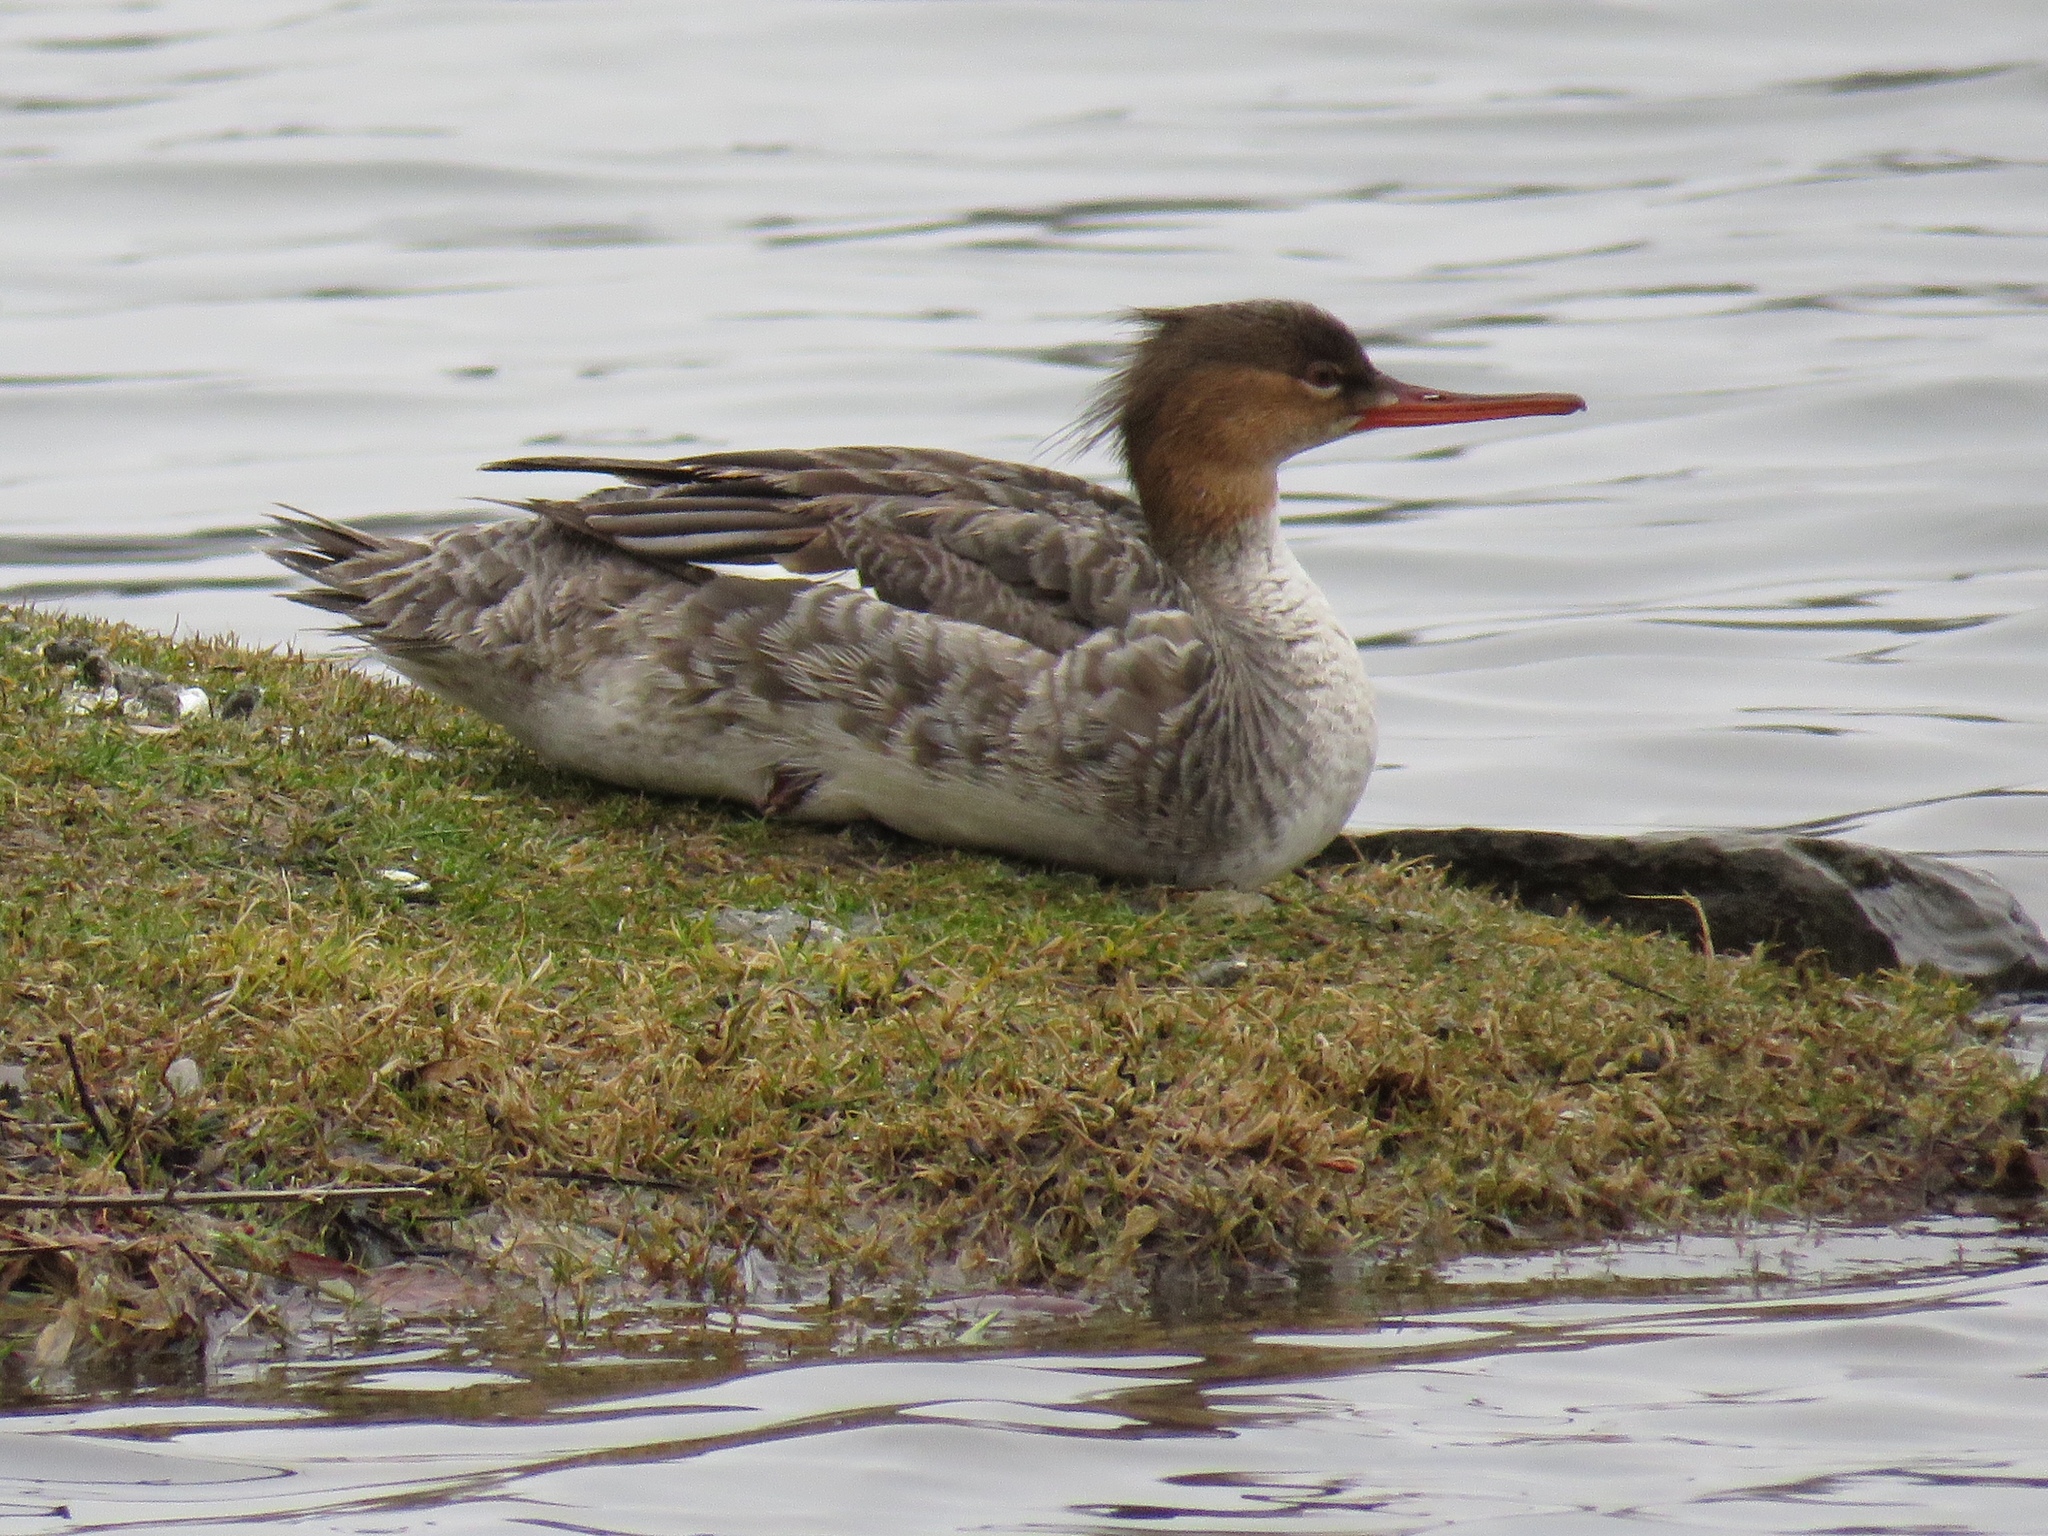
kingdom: Animalia
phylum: Chordata
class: Aves
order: Anseriformes
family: Anatidae
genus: Mergus
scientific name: Mergus serrator
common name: Red-breasted merganser
